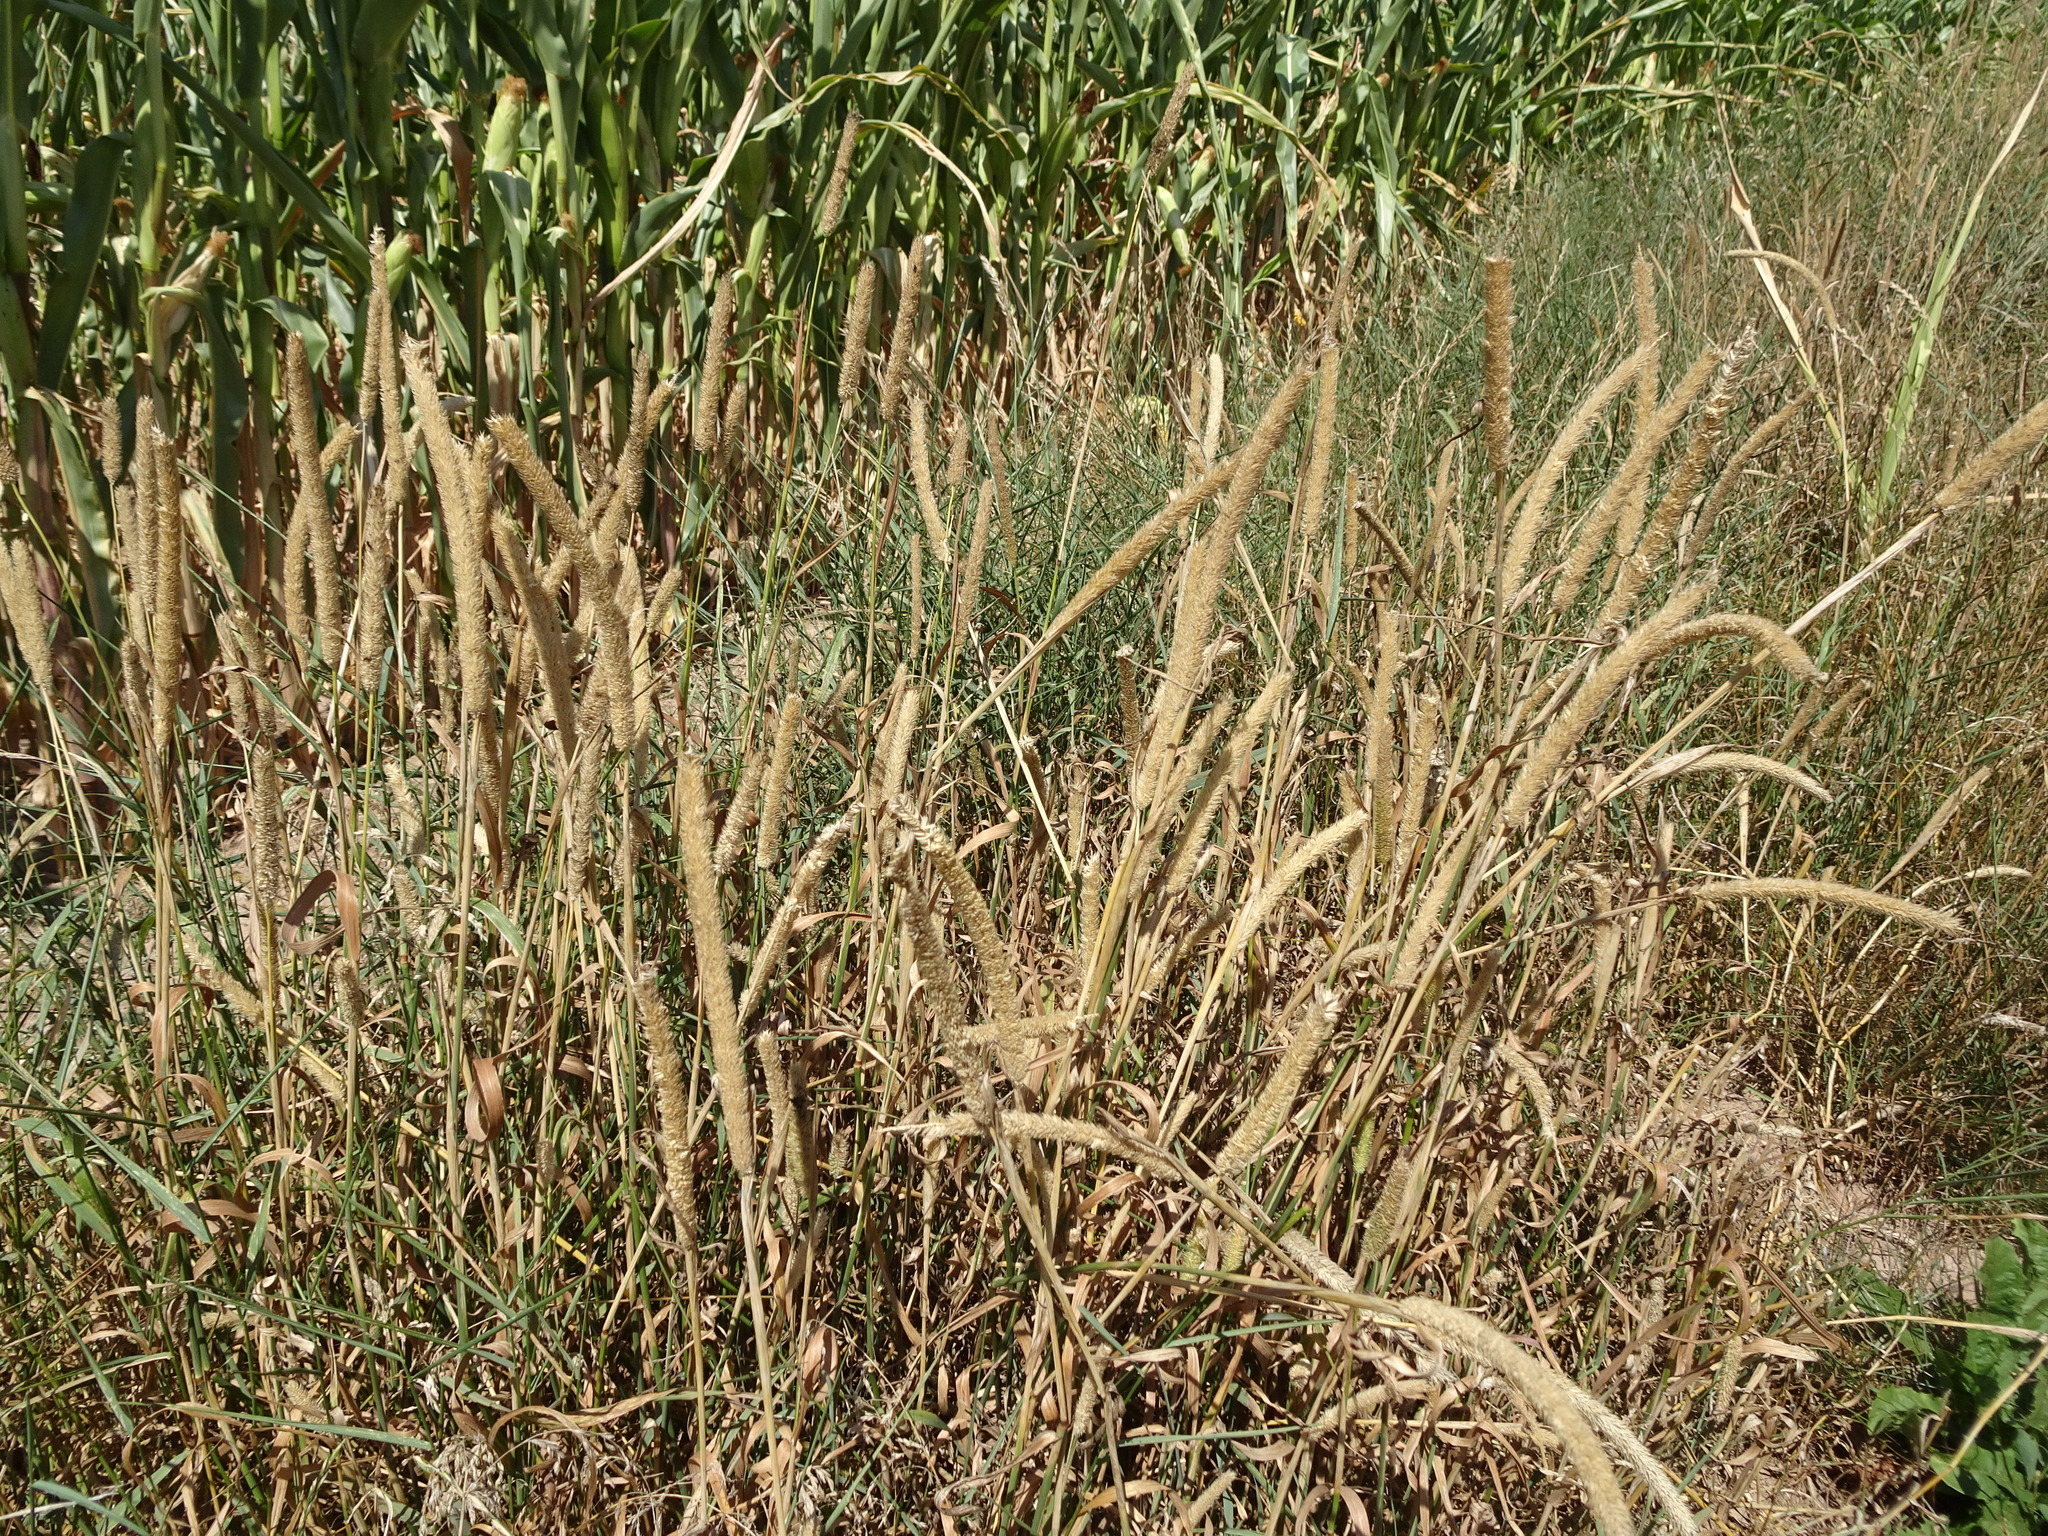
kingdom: Plantae
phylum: Tracheophyta
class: Liliopsida
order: Poales
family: Poaceae
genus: Phleum
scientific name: Phleum pratense
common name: Timothy grass
